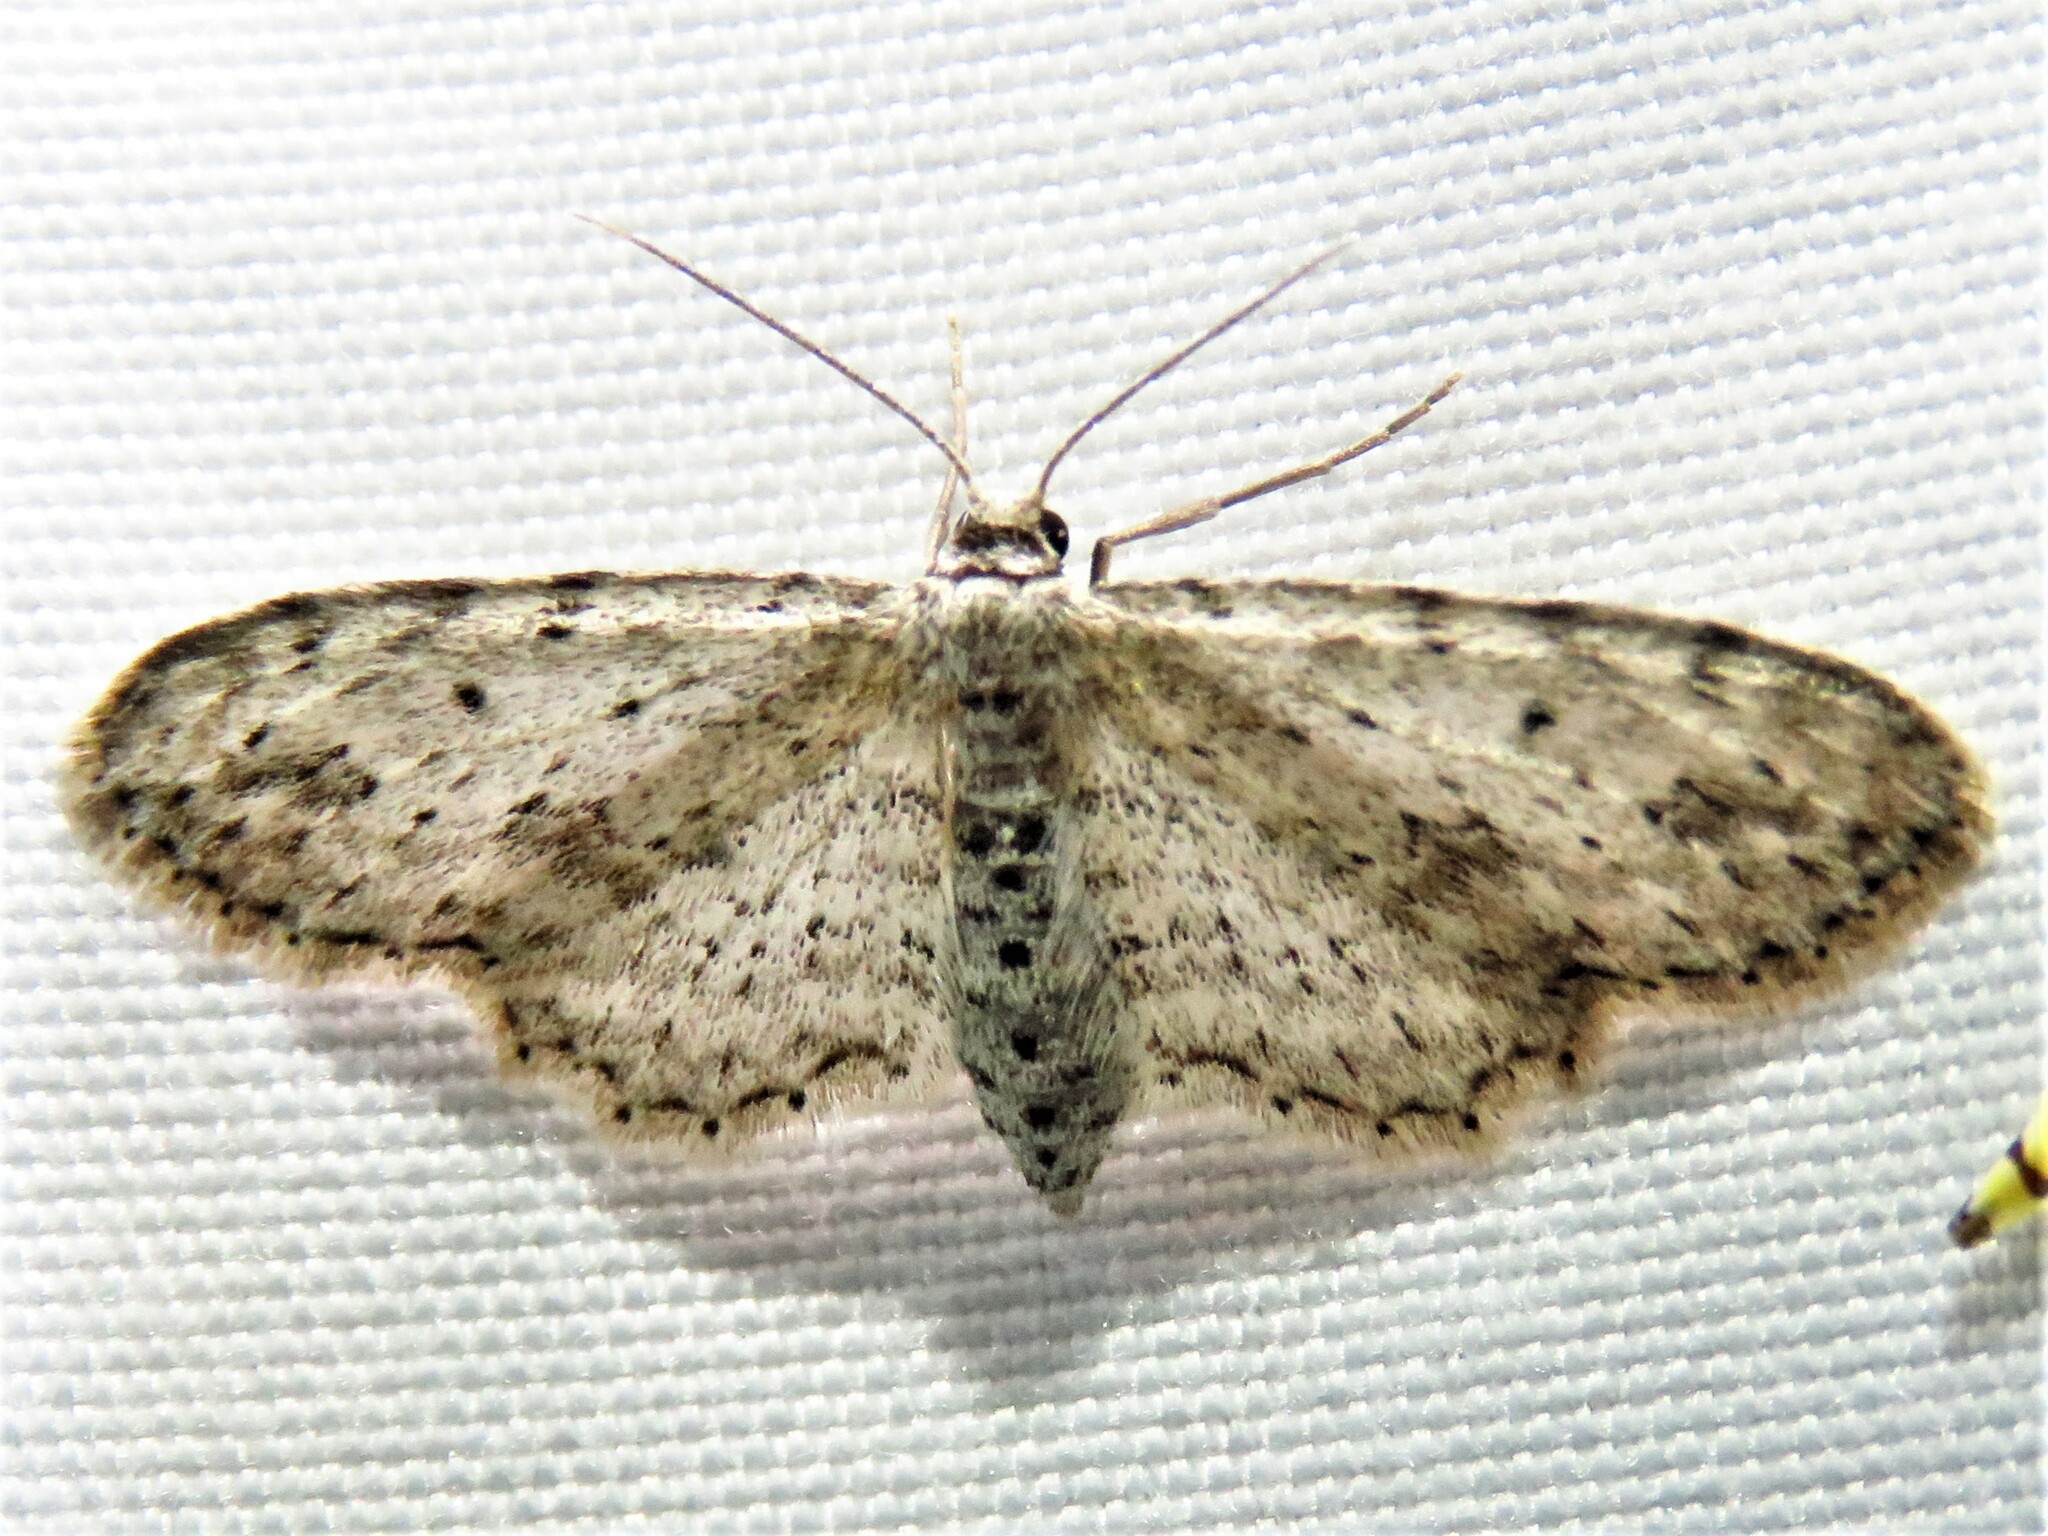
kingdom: Animalia
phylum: Arthropoda
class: Insecta
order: Lepidoptera
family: Geometridae
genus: Pimaphera
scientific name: Pimaphera sparsaria
